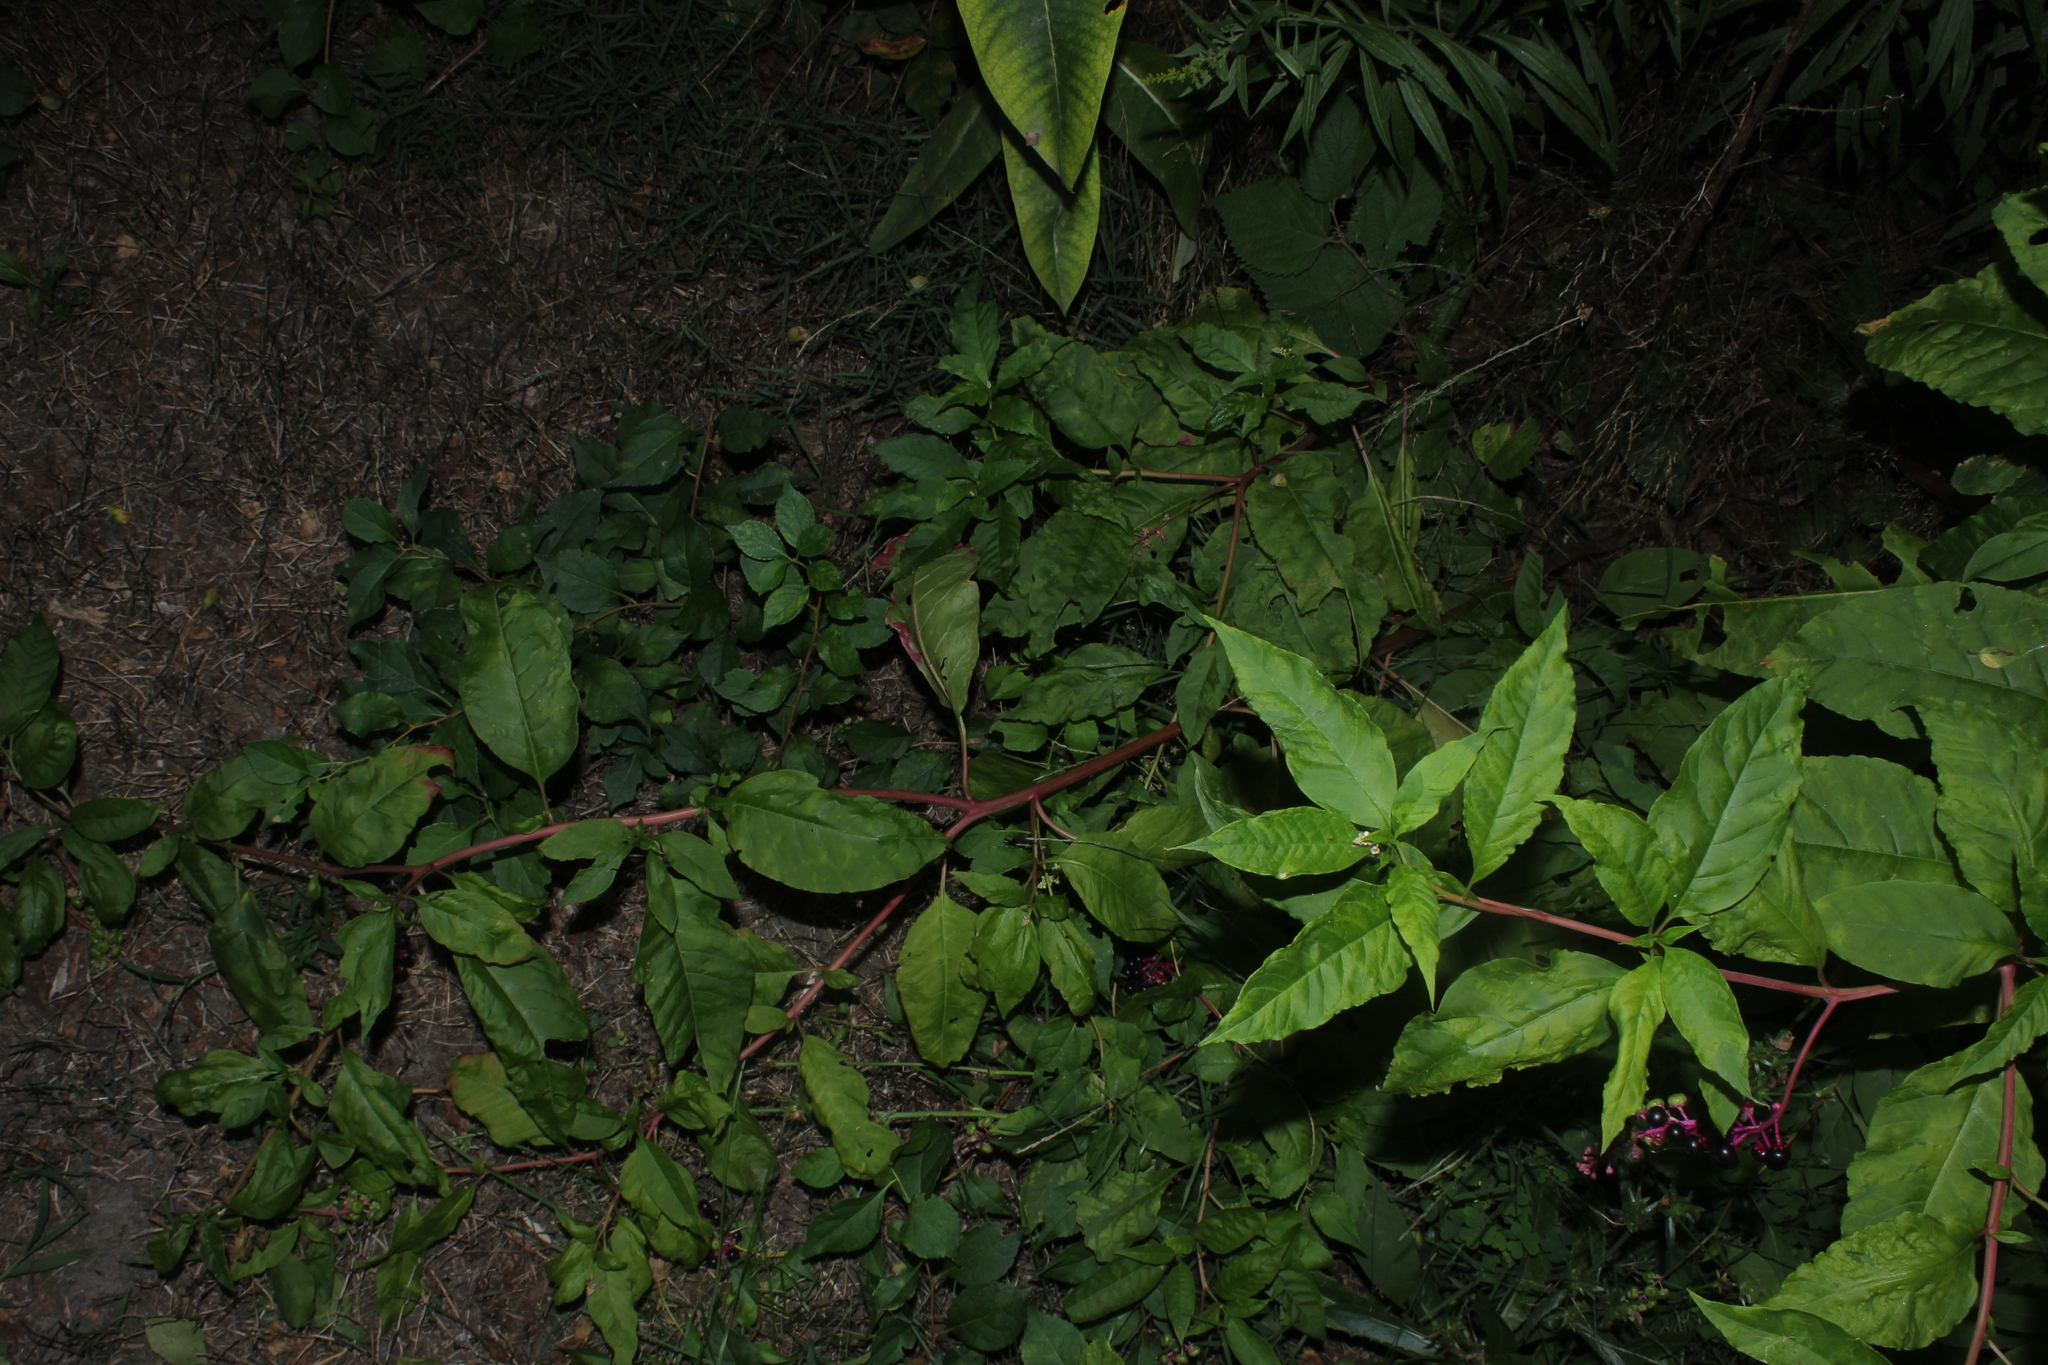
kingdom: Plantae
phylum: Tracheophyta
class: Magnoliopsida
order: Caryophyllales
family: Phytolaccaceae
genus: Phytolacca
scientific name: Phytolacca americana
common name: American pokeweed
